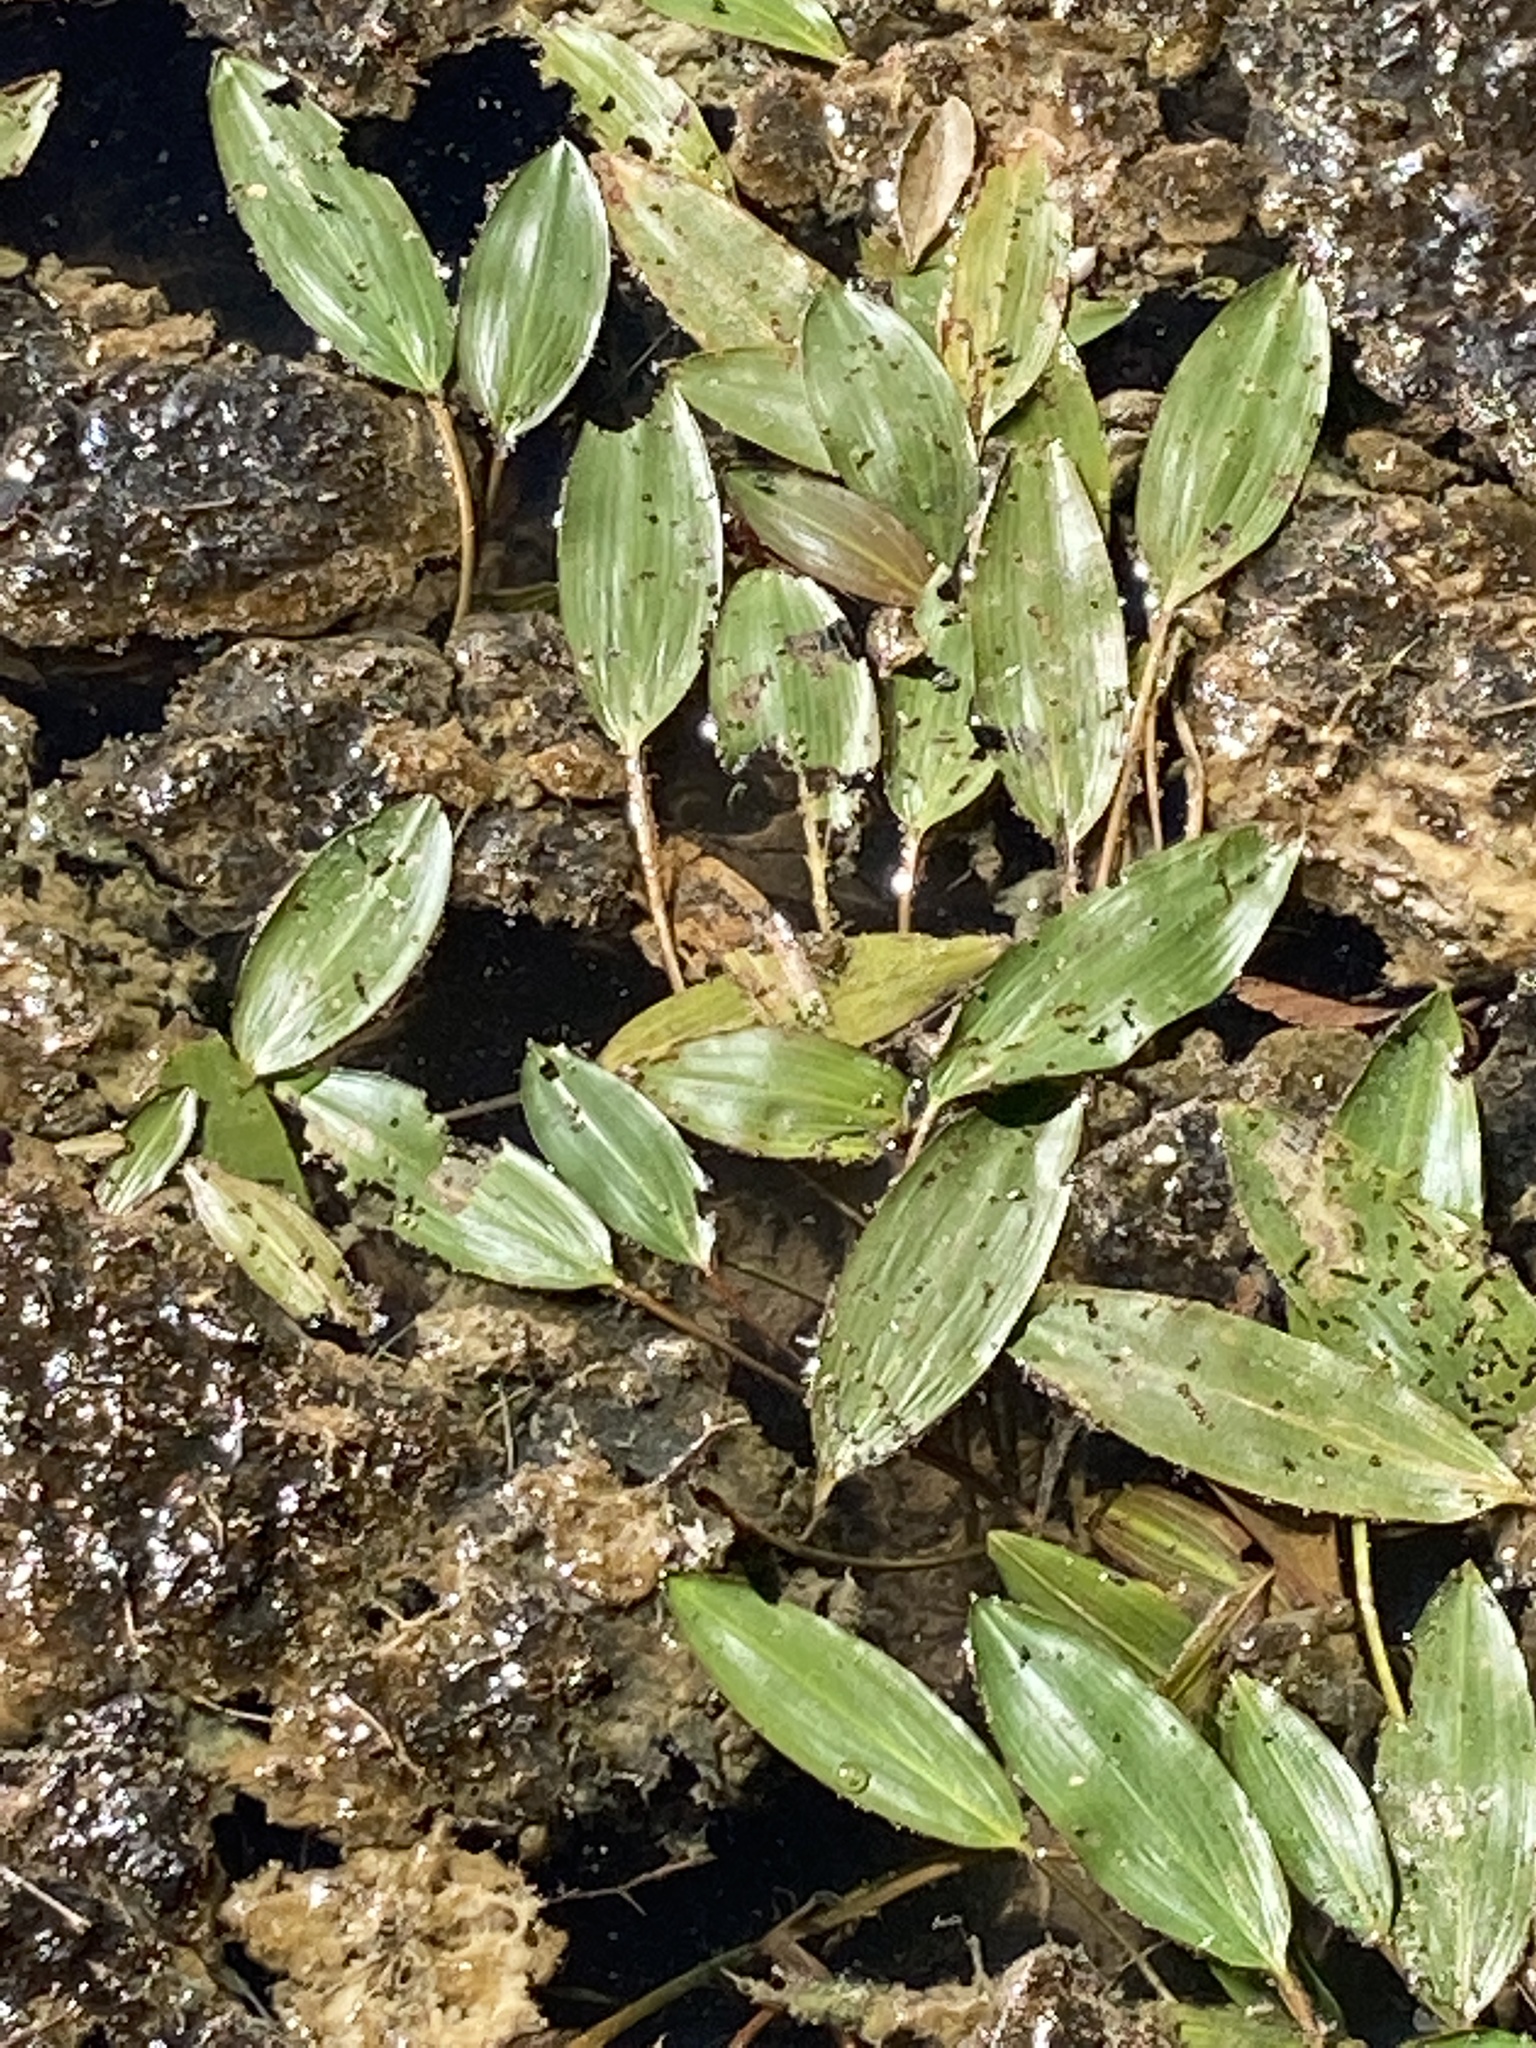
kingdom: Plantae
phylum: Tracheophyta
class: Liliopsida
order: Alismatales
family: Potamogetonaceae
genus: Potamogeton
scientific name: Potamogeton nodosus
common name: Loddon pondweed
